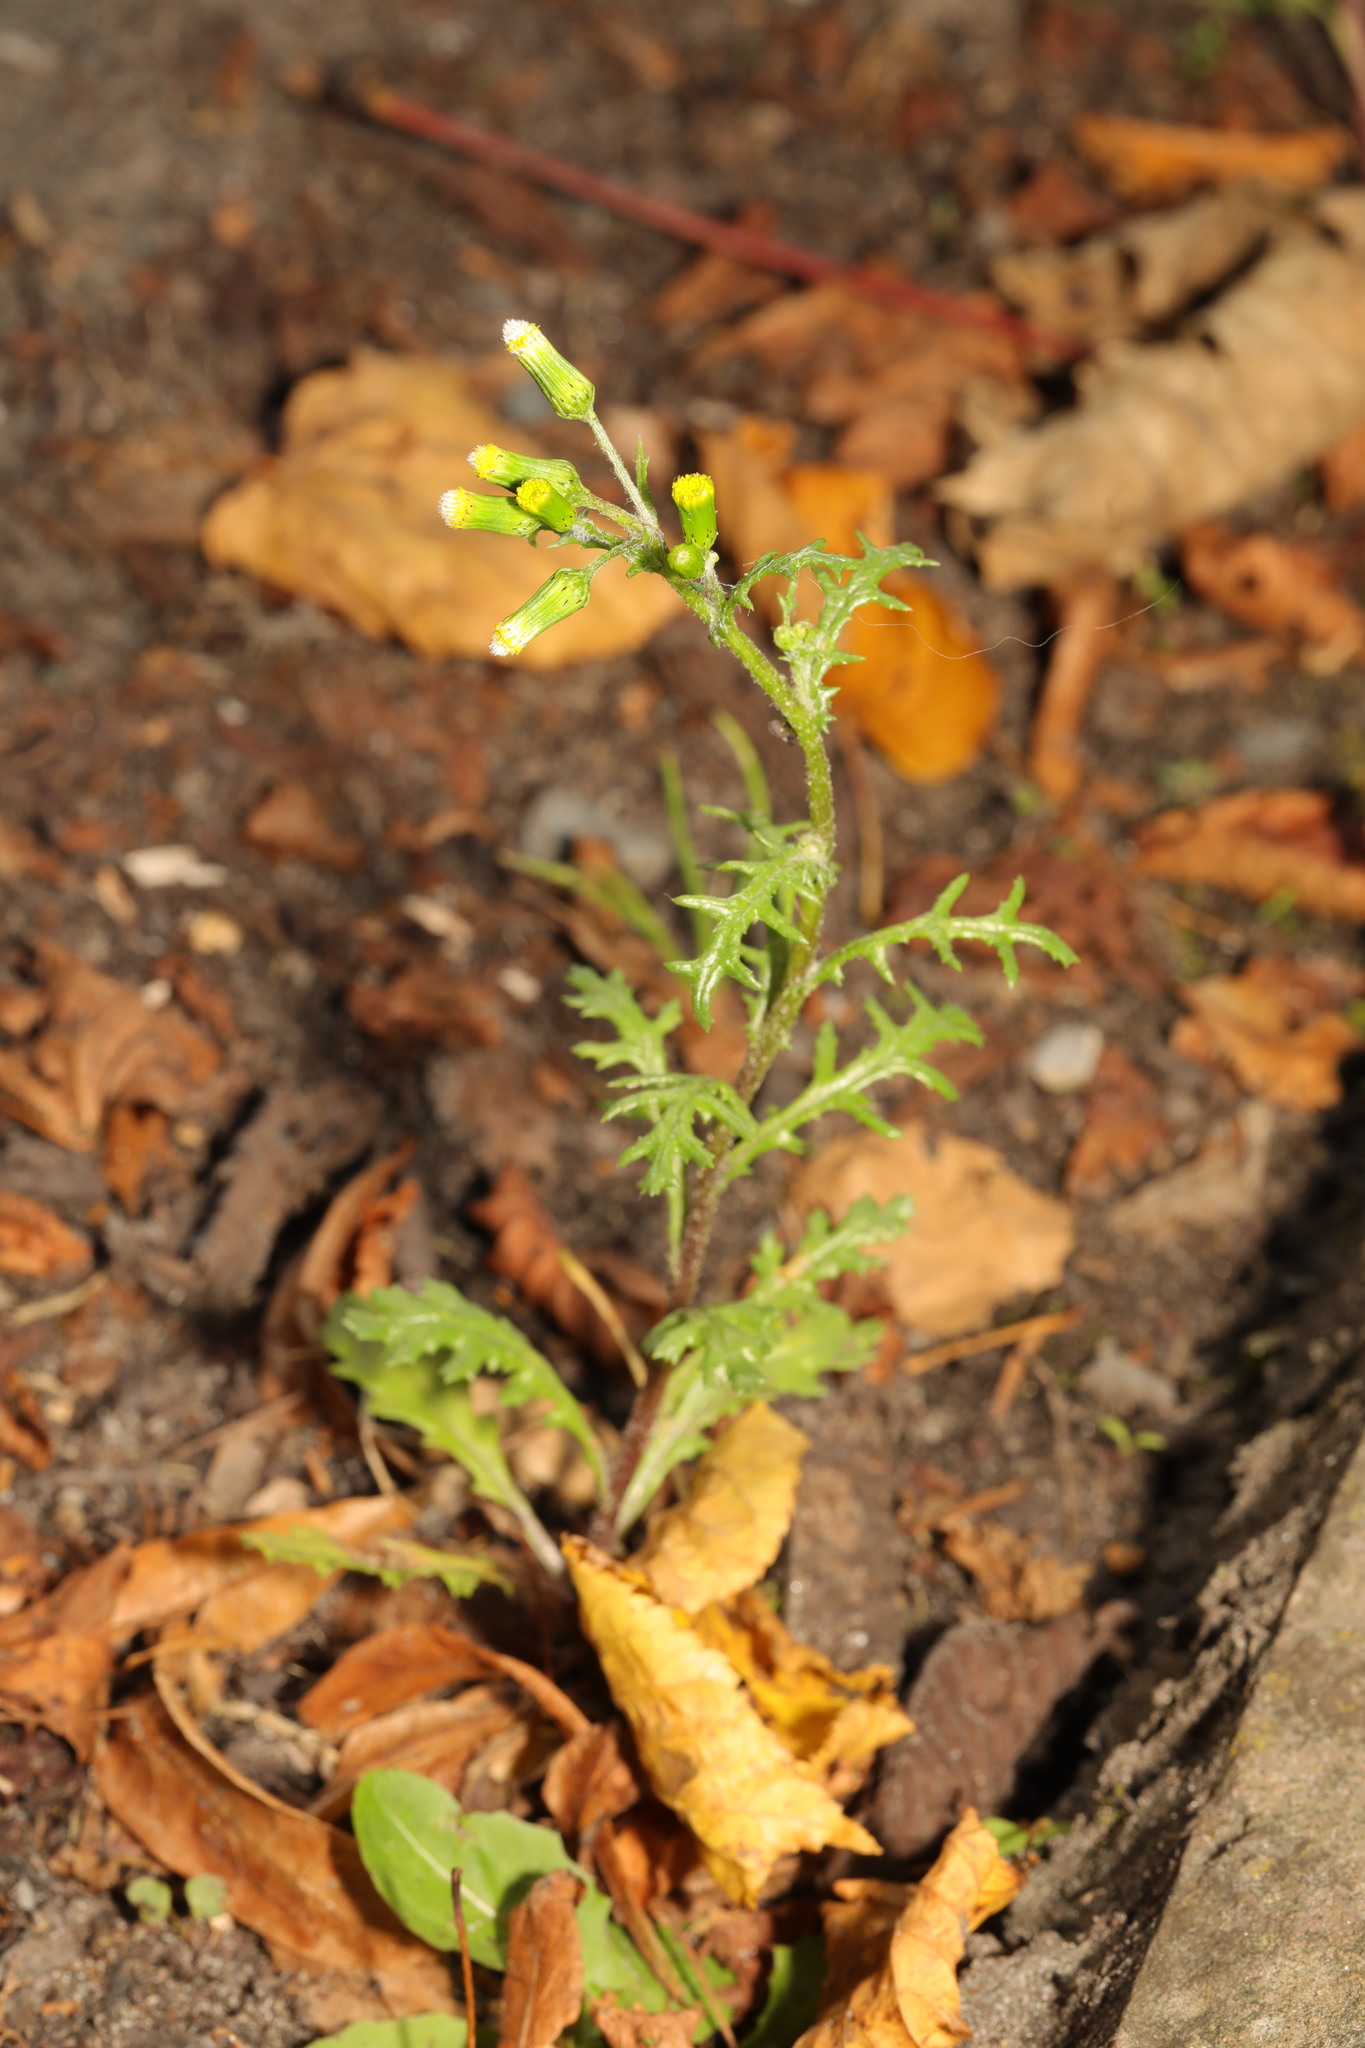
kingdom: Plantae
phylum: Tracheophyta
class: Magnoliopsida
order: Asterales
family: Asteraceae
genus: Senecio
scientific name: Senecio vulgaris
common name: Old-man-in-the-spring
